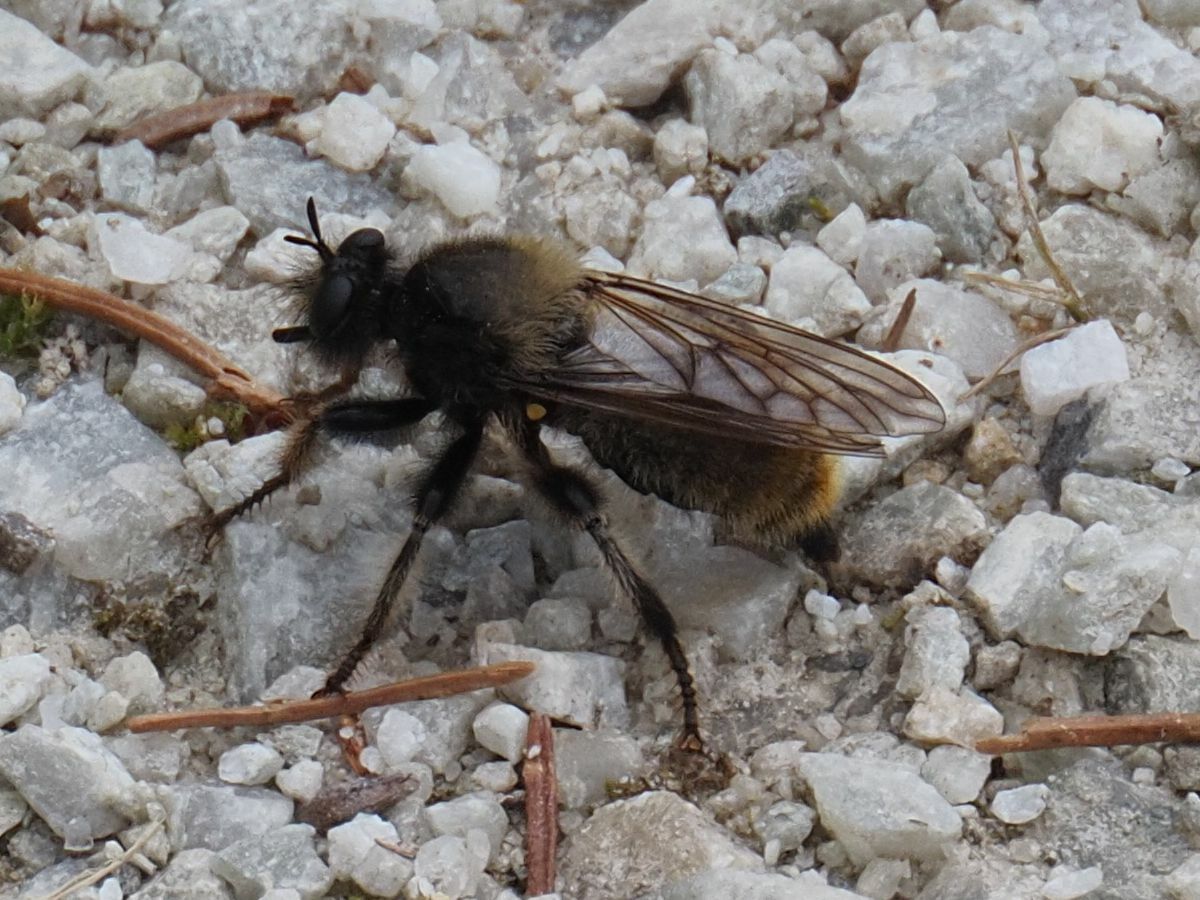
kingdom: Animalia
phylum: Arthropoda
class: Insecta
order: Diptera
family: Asilidae
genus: Laphria
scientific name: Laphria flava
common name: Bumblebee robberfly
